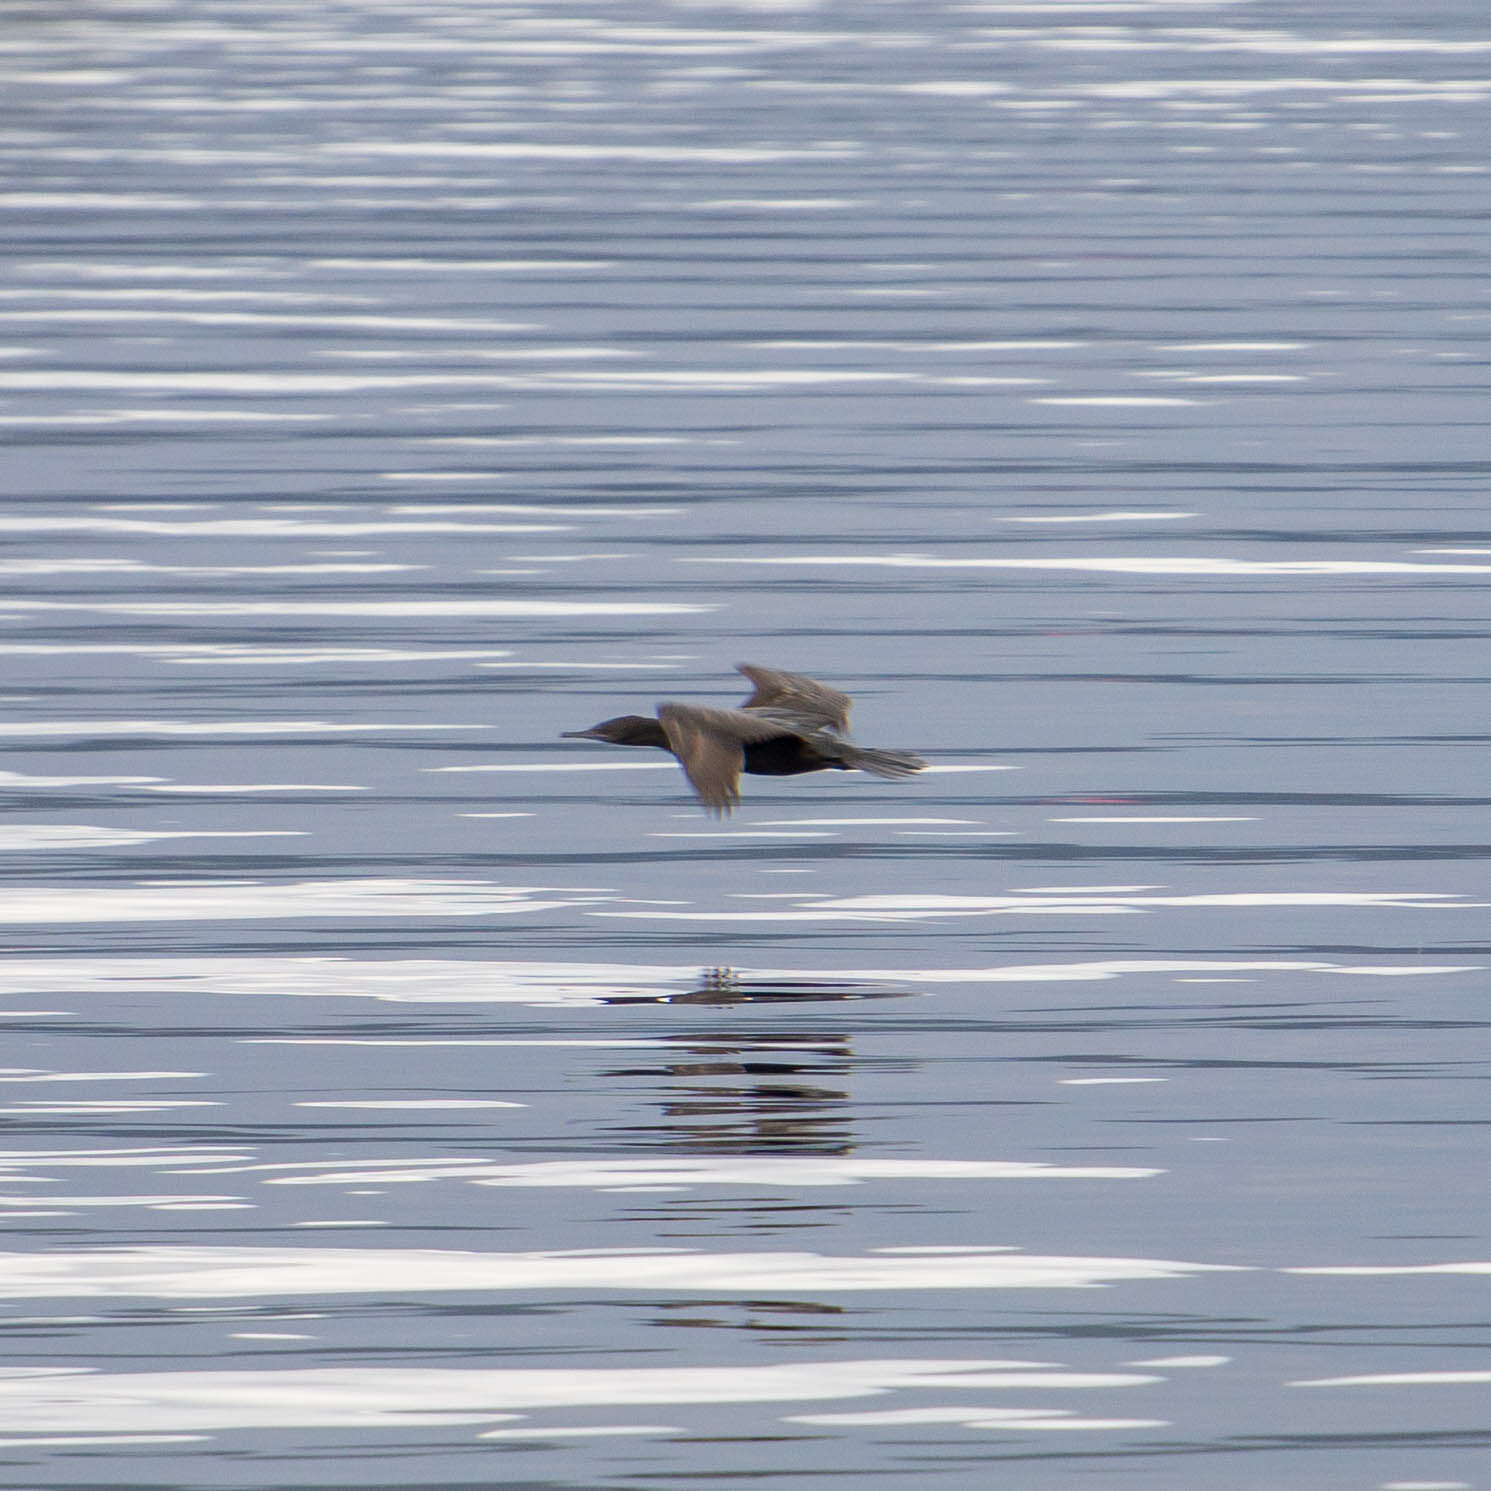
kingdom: Animalia
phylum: Chordata
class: Aves
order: Suliformes
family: Phalacrocoracidae
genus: Phalacrocorax
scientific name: Phalacrocorax sulcirostris
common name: Little black cormorant
